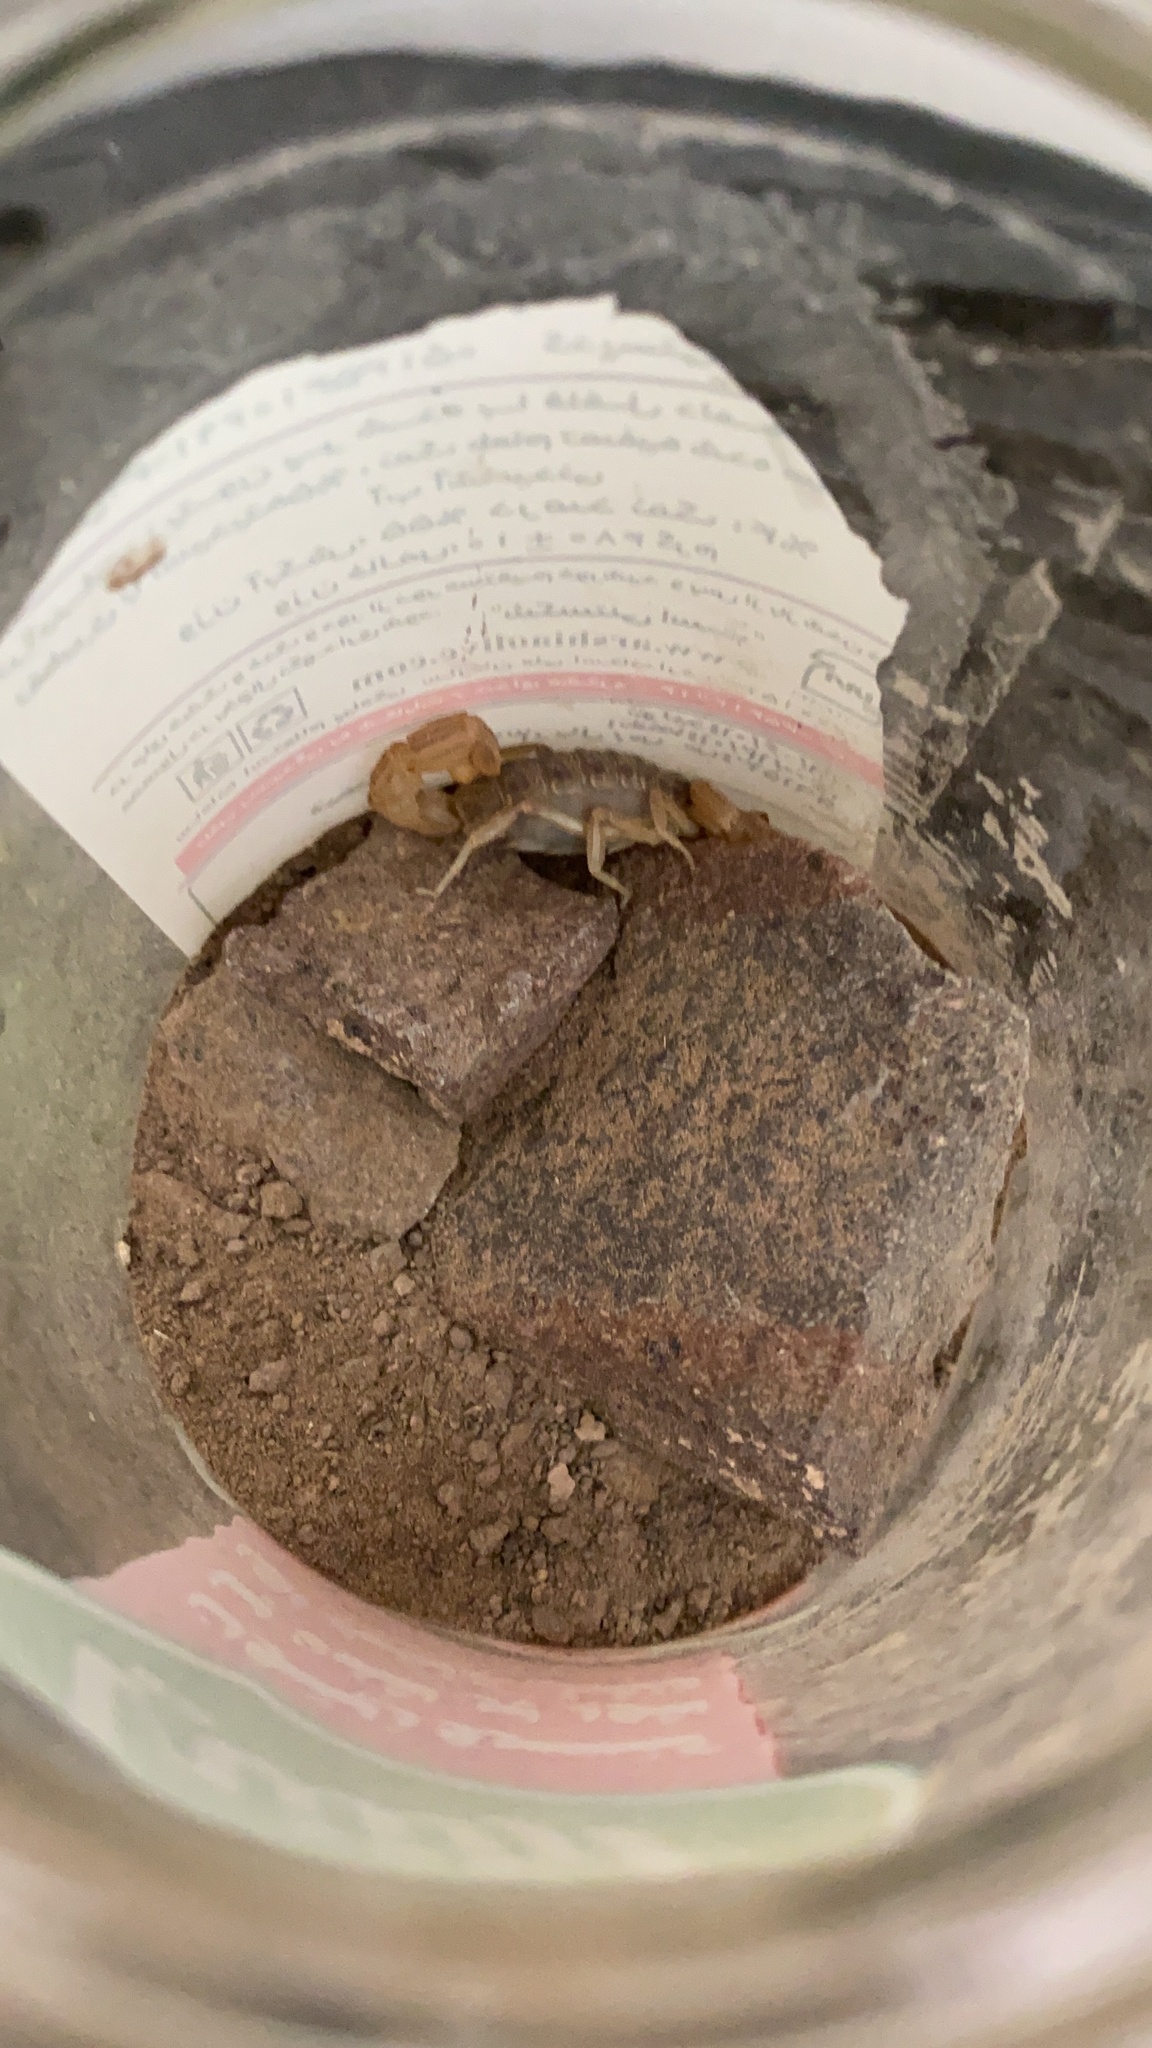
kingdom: Animalia
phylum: Arthropoda
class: Arachnida
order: Scorpiones
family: Buthidae
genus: Mesobuthus
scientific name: Mesobuthus afghanus
